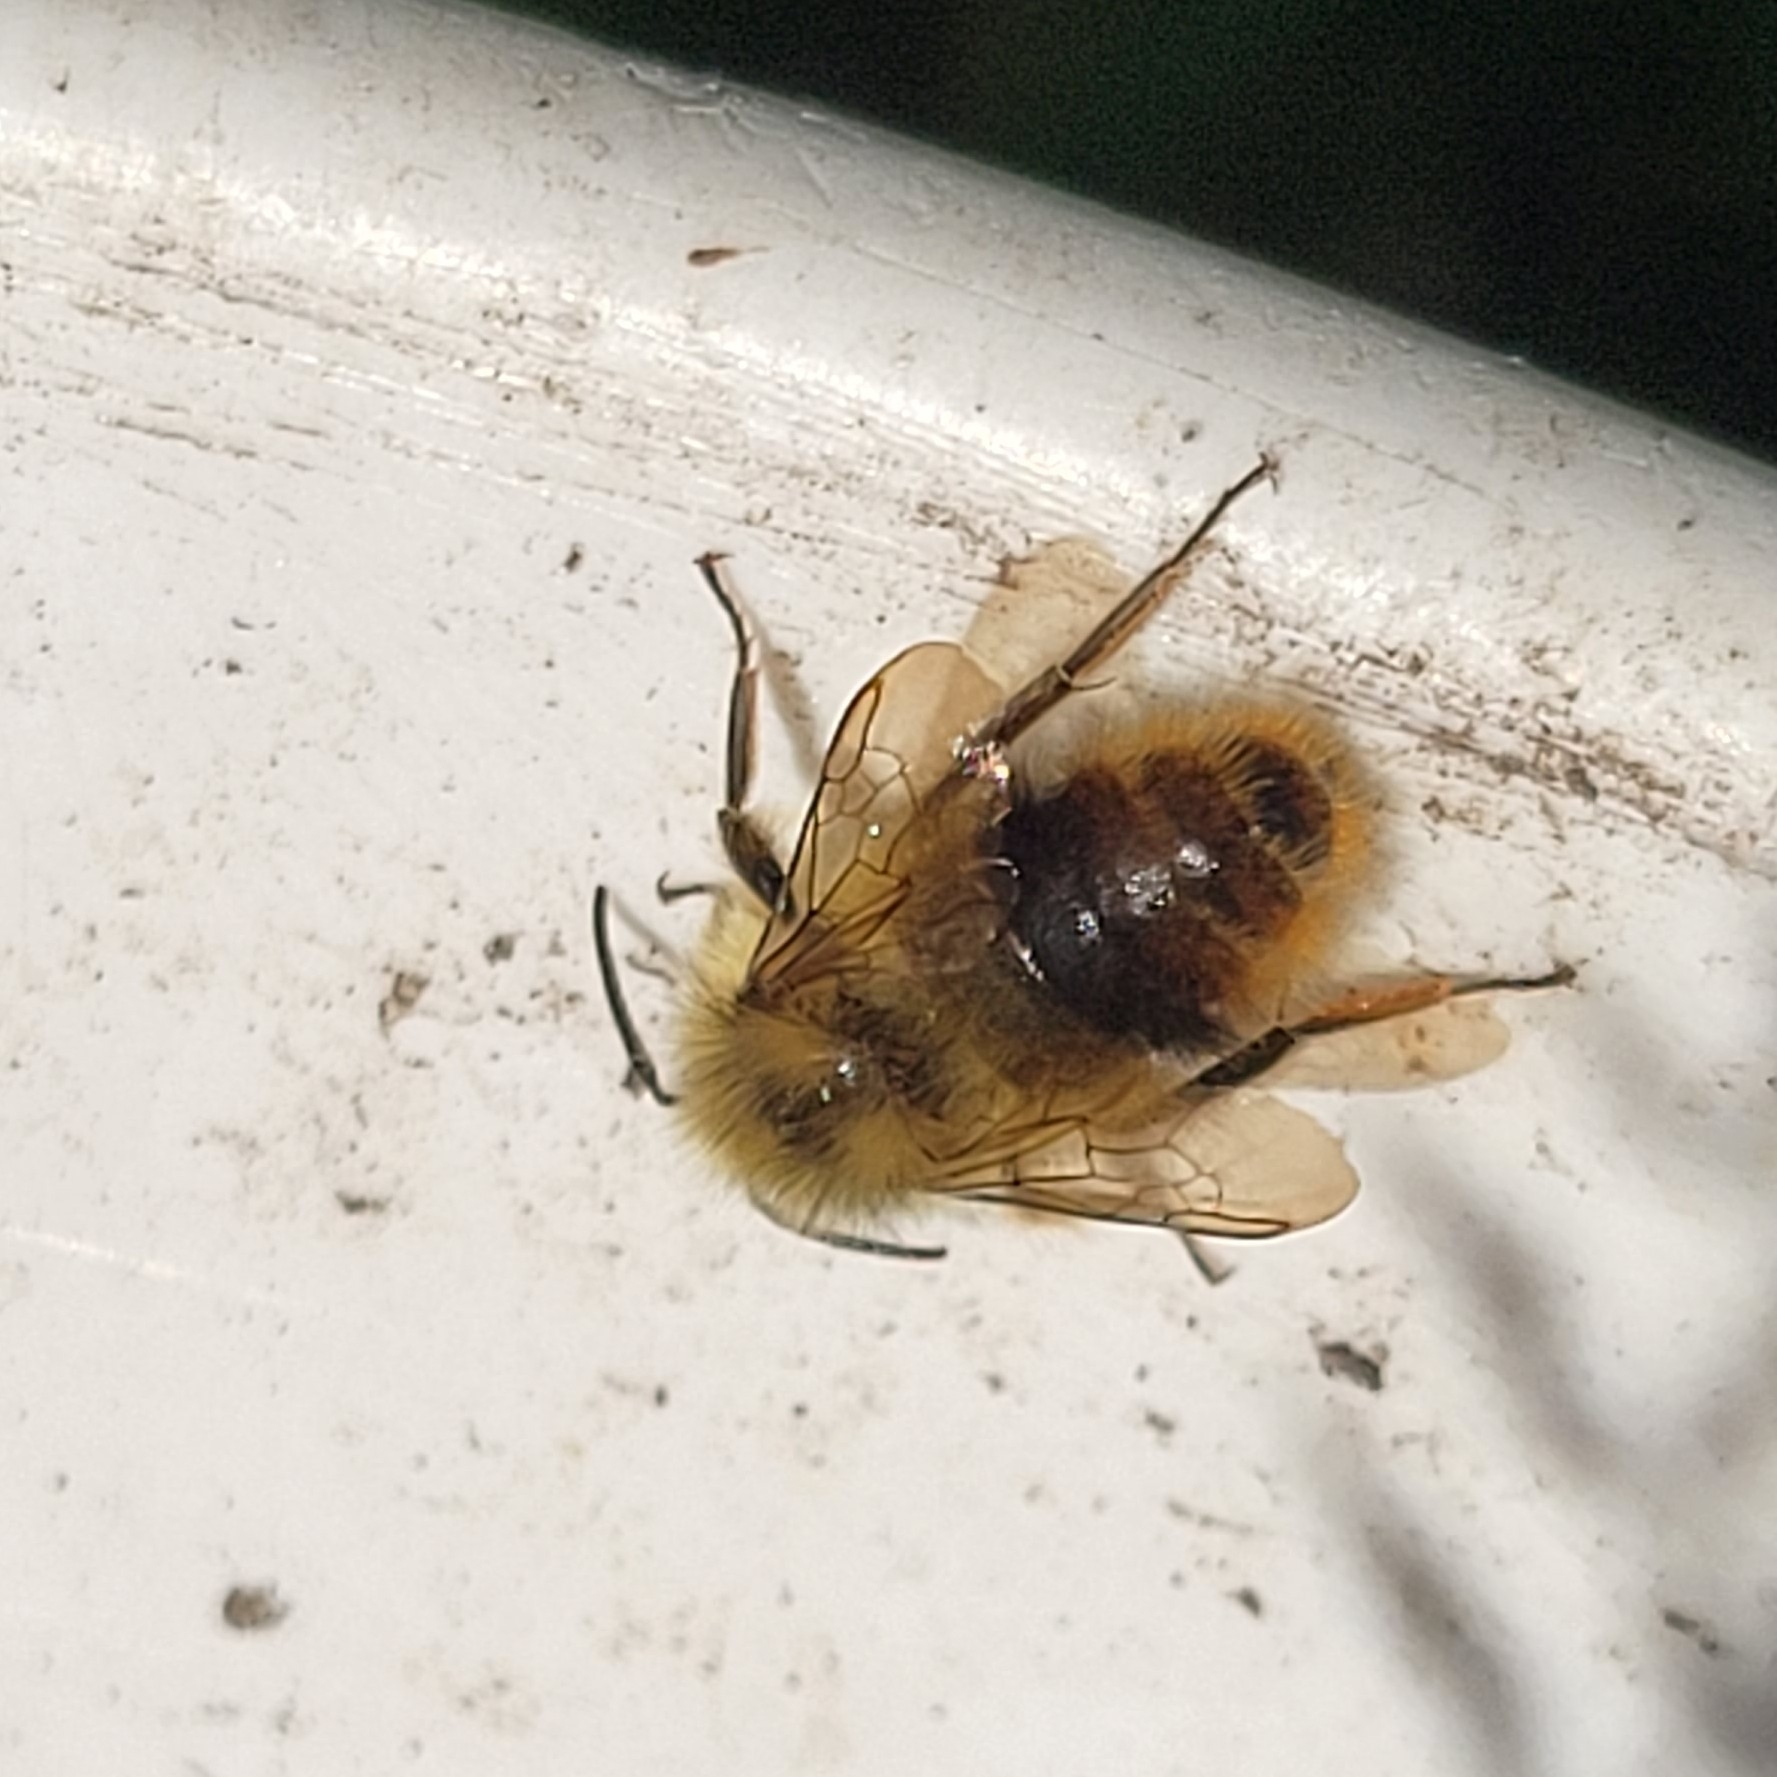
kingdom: Animalia
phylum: Arthropoda
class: Insecta
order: Hymenoptera
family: Apidae
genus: Bombus
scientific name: Bombus mixtus
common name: Fuzzy-horned bumble bee
